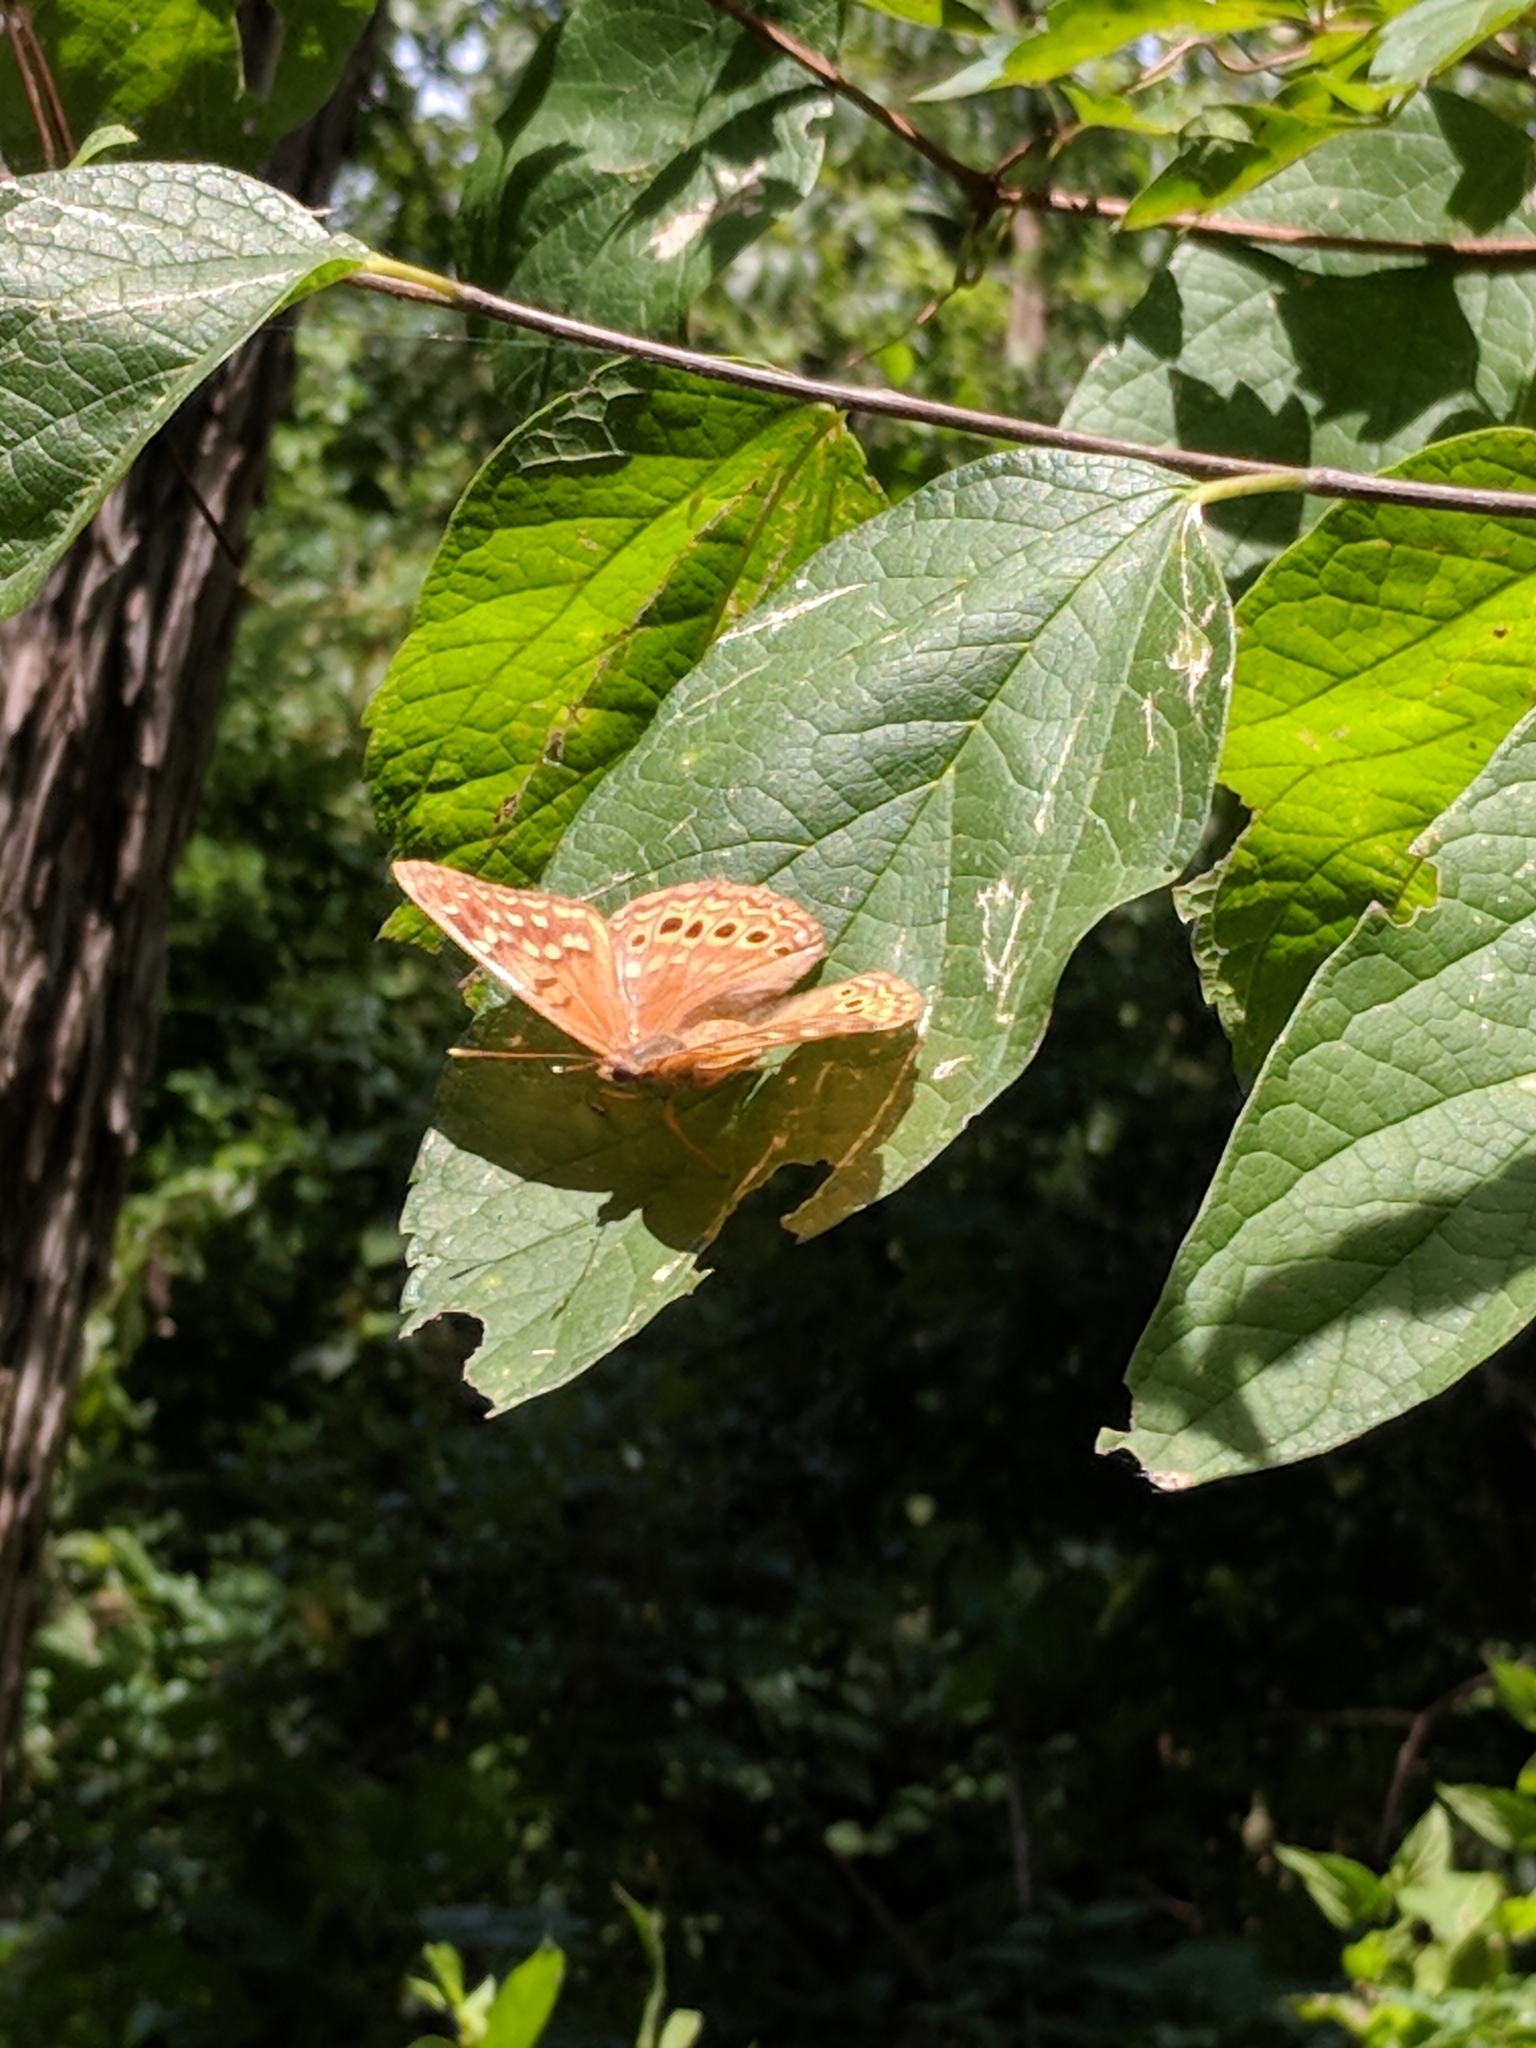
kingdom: Animalia
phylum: Arthropoda
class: Insecta
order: Lepidoptera
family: Nymphalidae
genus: Asterocampa
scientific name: Asterocampa clyton
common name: Tawny emperor
